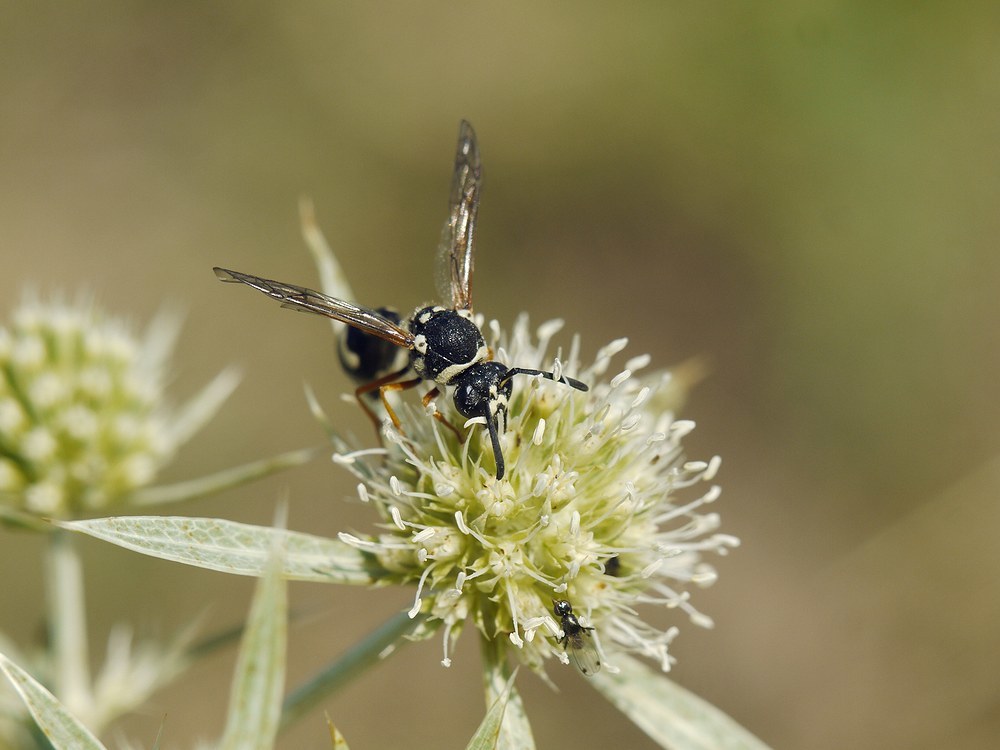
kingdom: Animalia
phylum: Arthropoda
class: Insecta
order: Hymenoptera
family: Vespidae
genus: Eumenes
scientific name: Eumenes sareptanus
